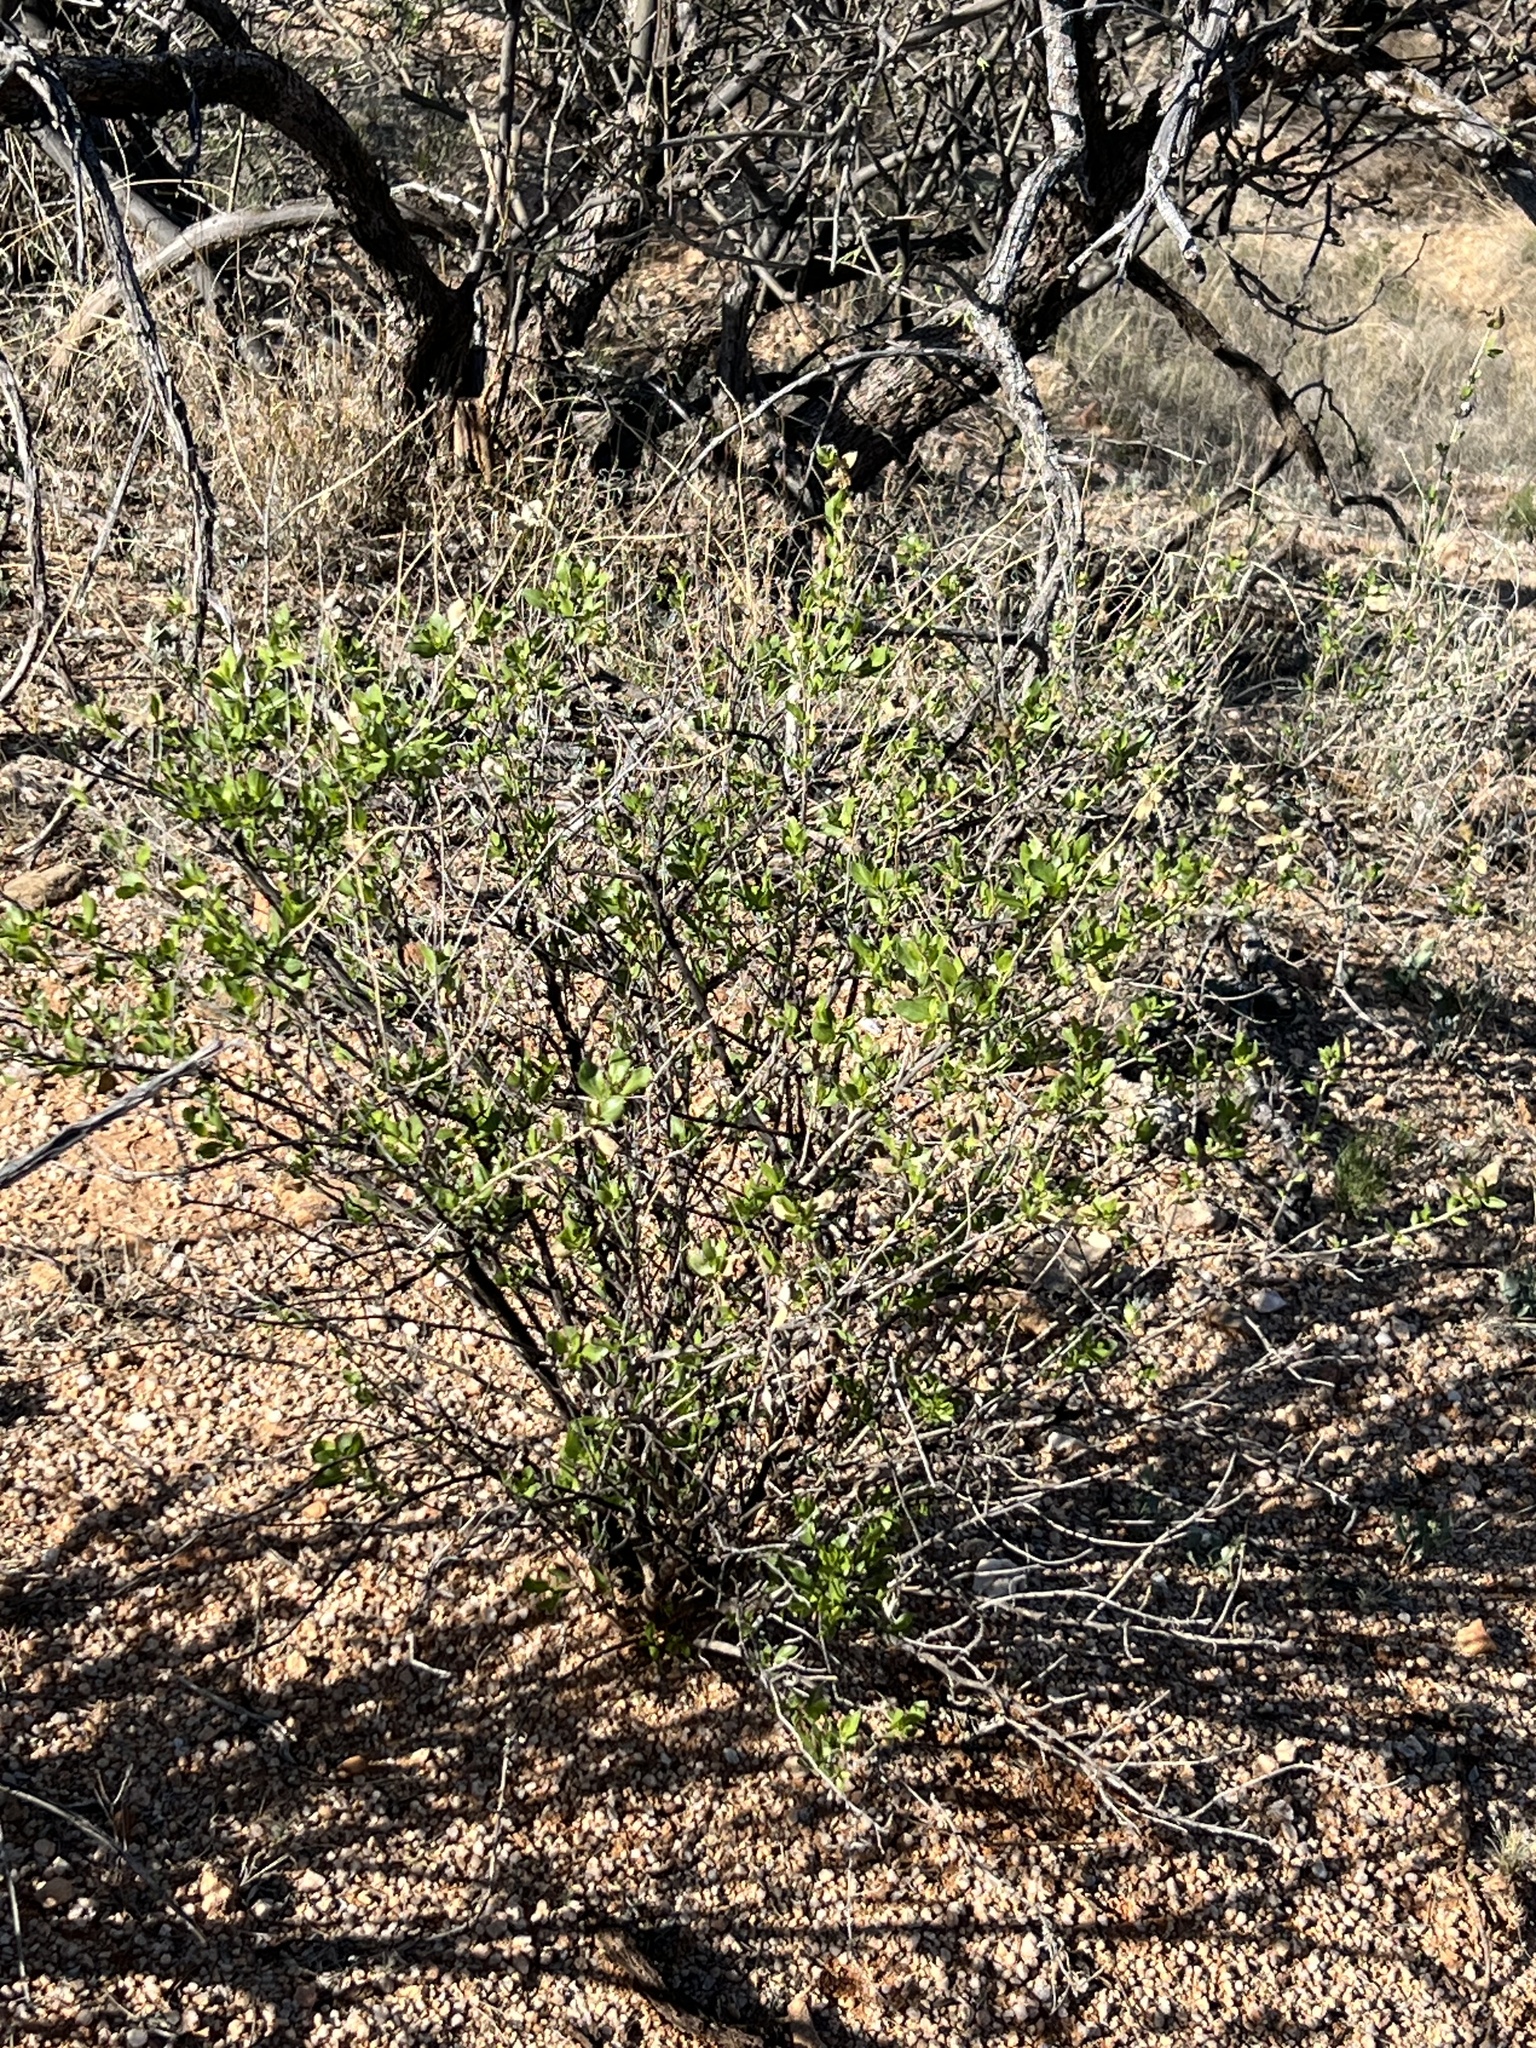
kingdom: Plantae
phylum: Tracheophyta
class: Magnoliopsida
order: Asterales
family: Asteraceae
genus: Flourensia
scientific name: Flourensia cernua
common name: Varnishbush
